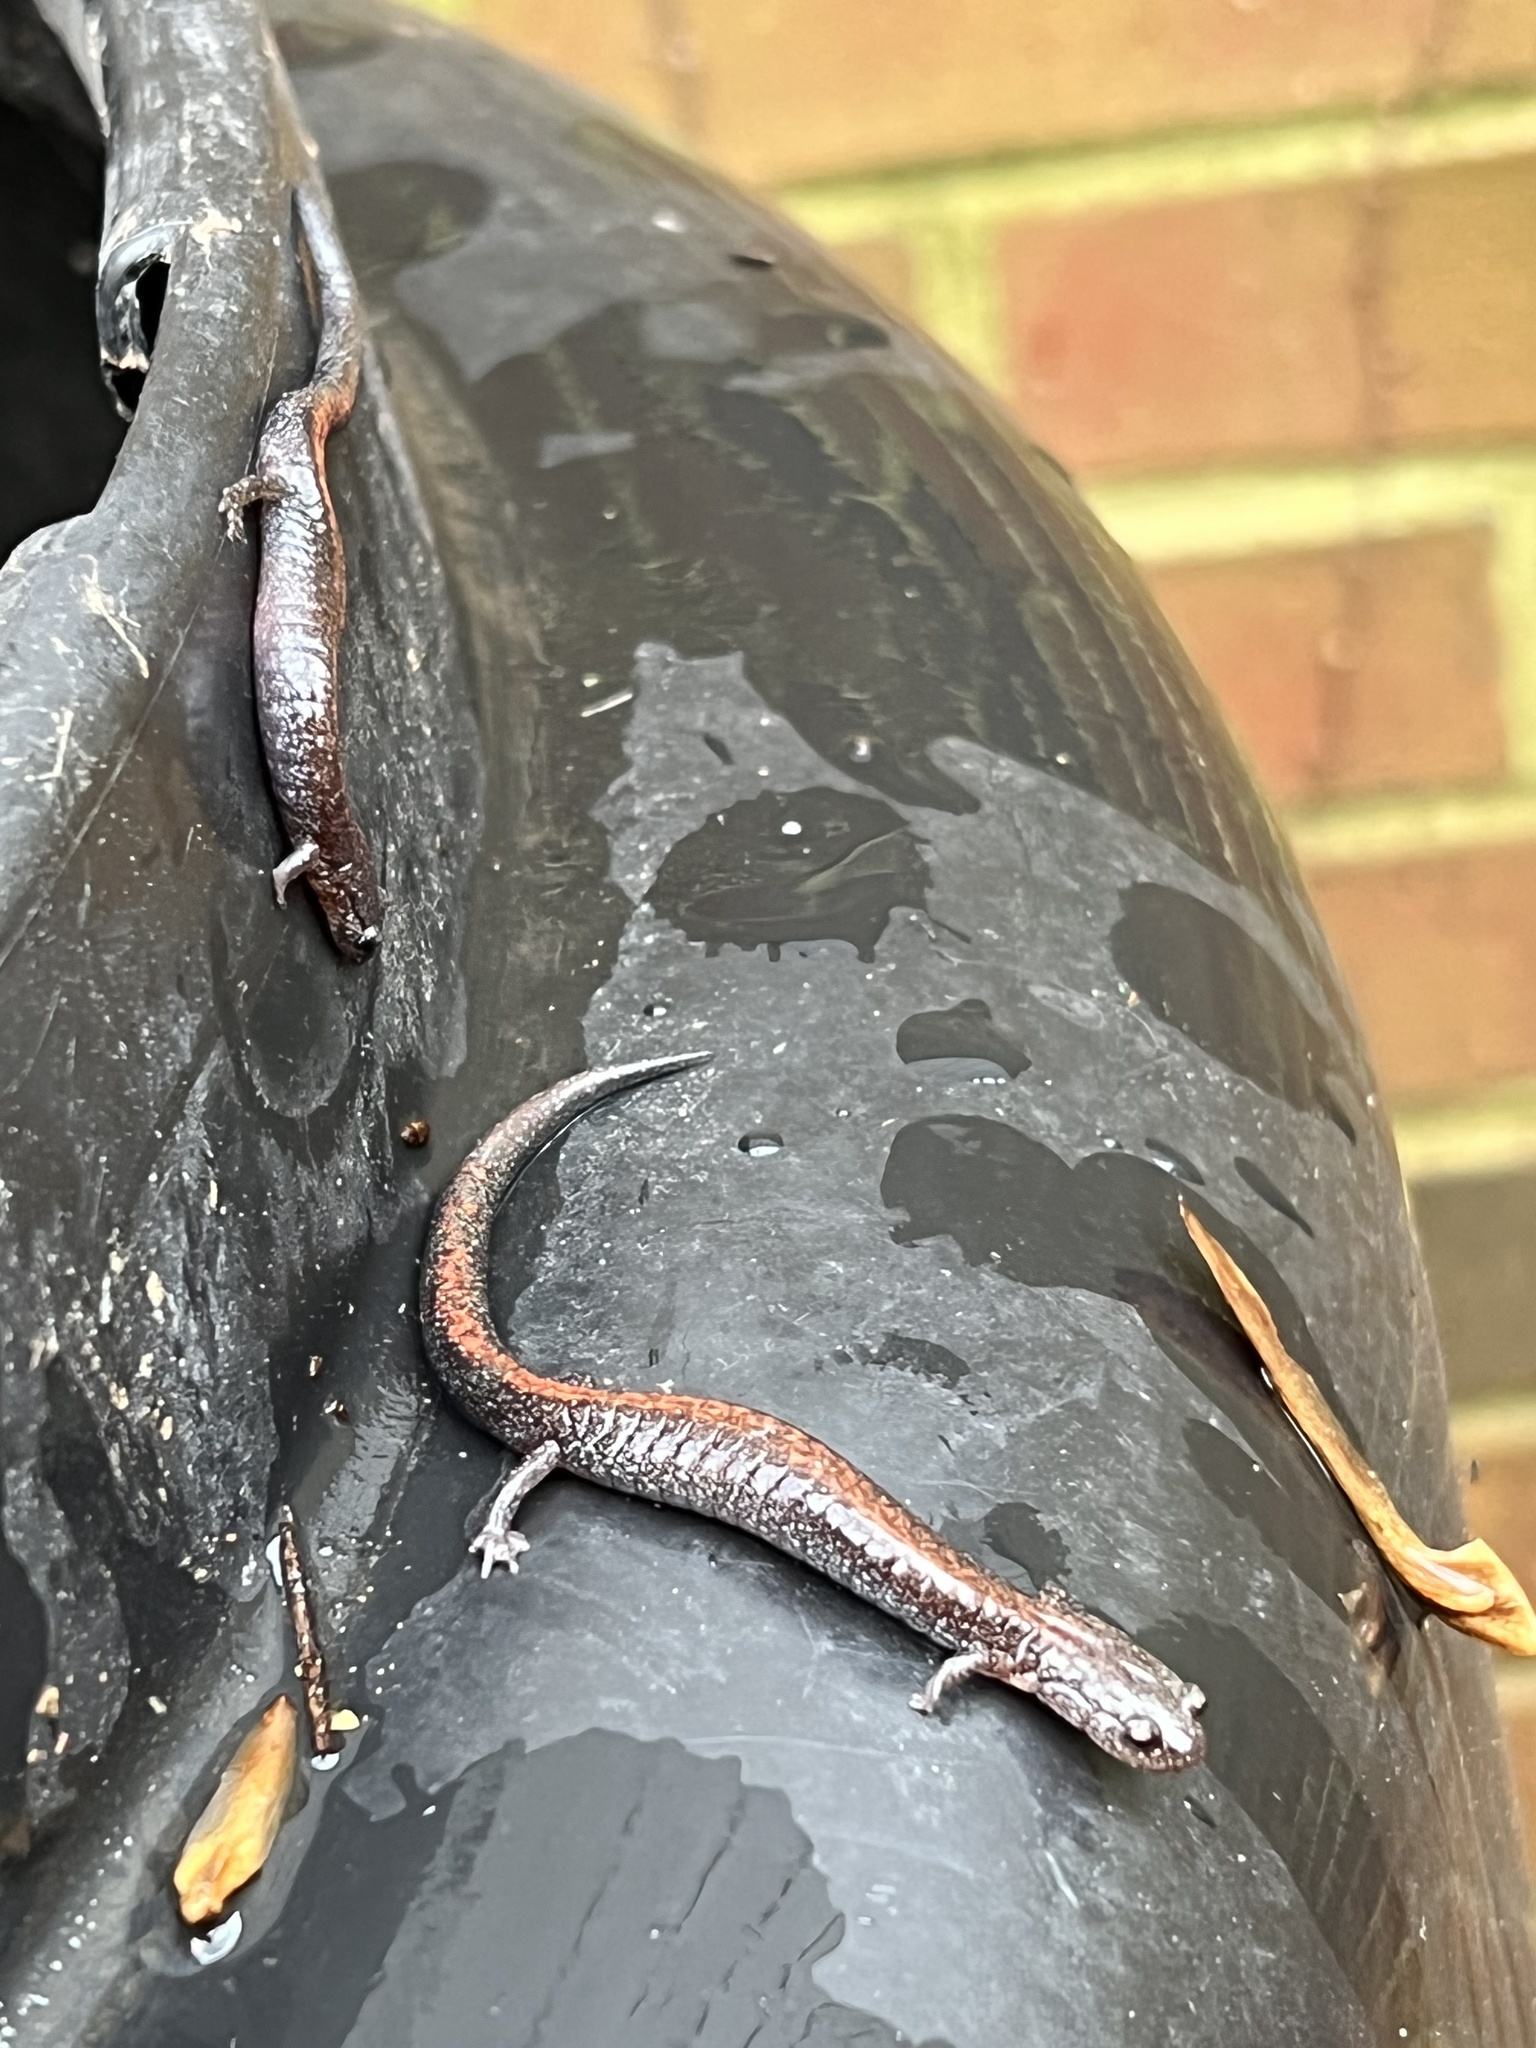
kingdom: Animalia
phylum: Chordata
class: Amphibia
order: Caudata
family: Plethodontidae
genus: Plethodon
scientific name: Plethodon cinereus
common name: Redback salamander
